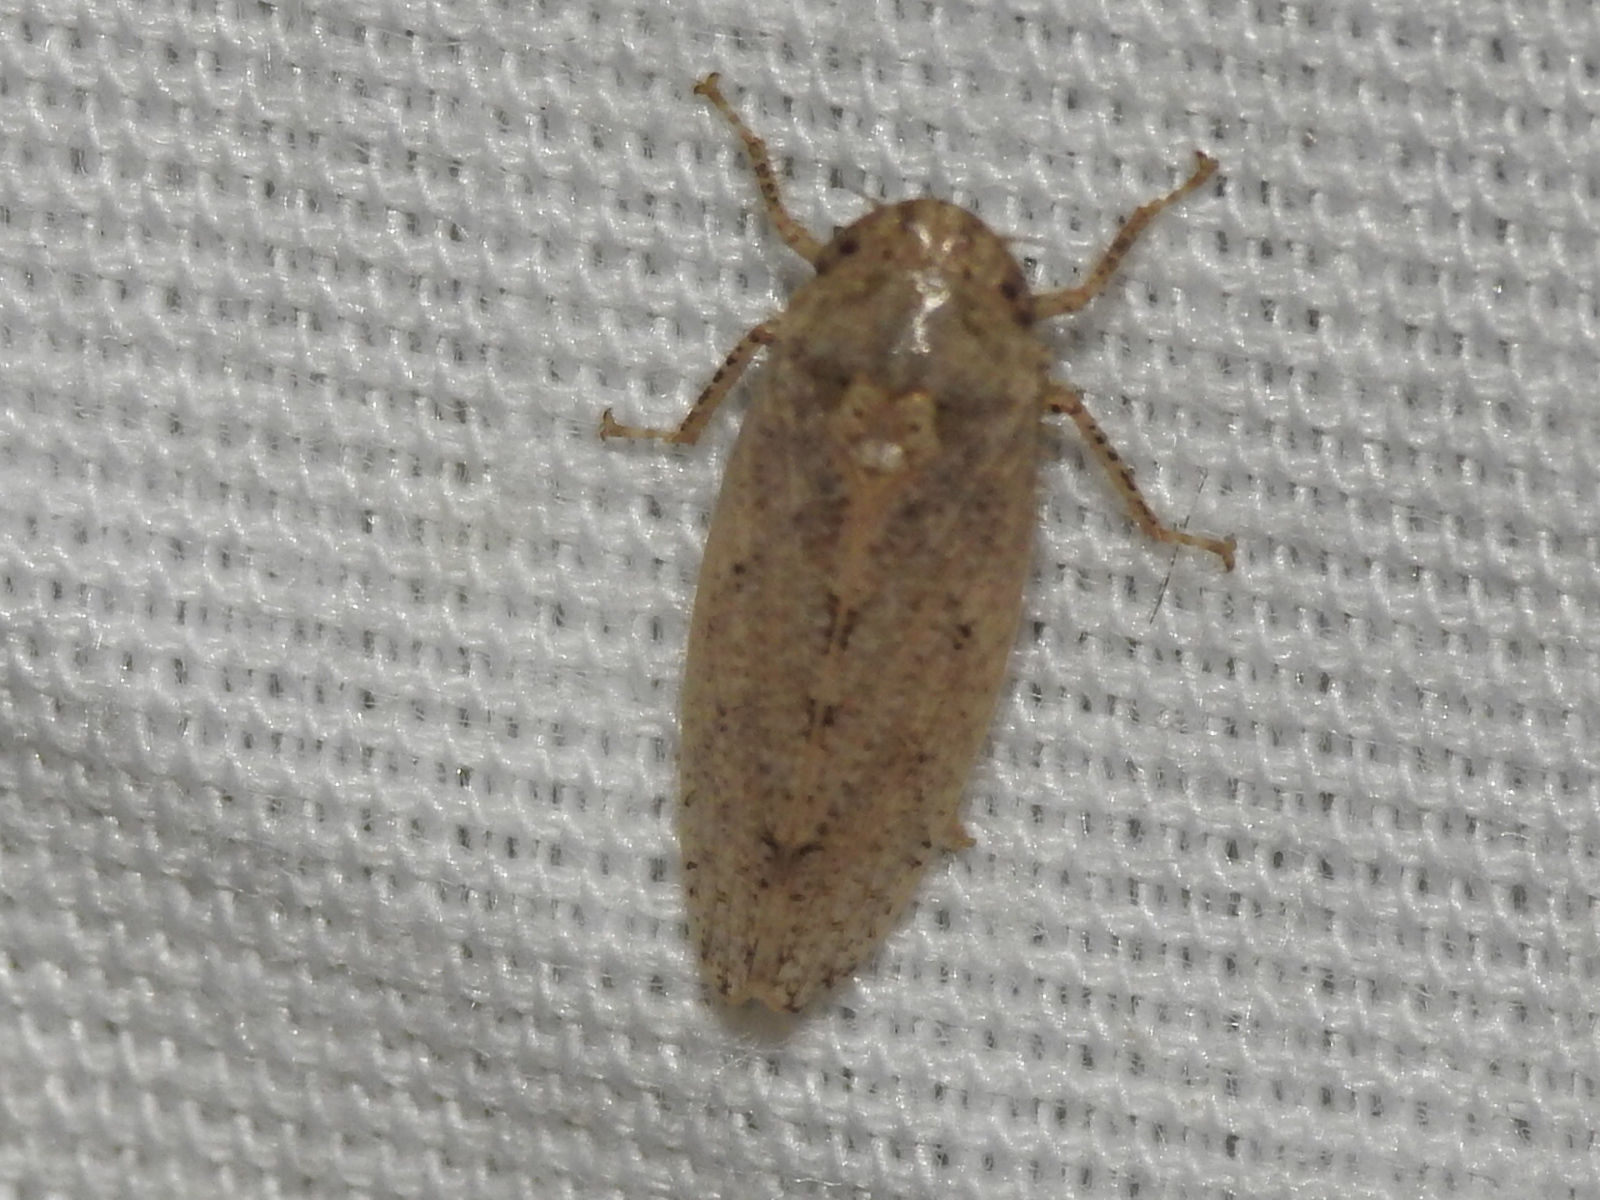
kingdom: Animalia
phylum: Arthropoda
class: Insecta
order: Hemiptera
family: Cicadellidae
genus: Curtara
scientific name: Curtara insularis
